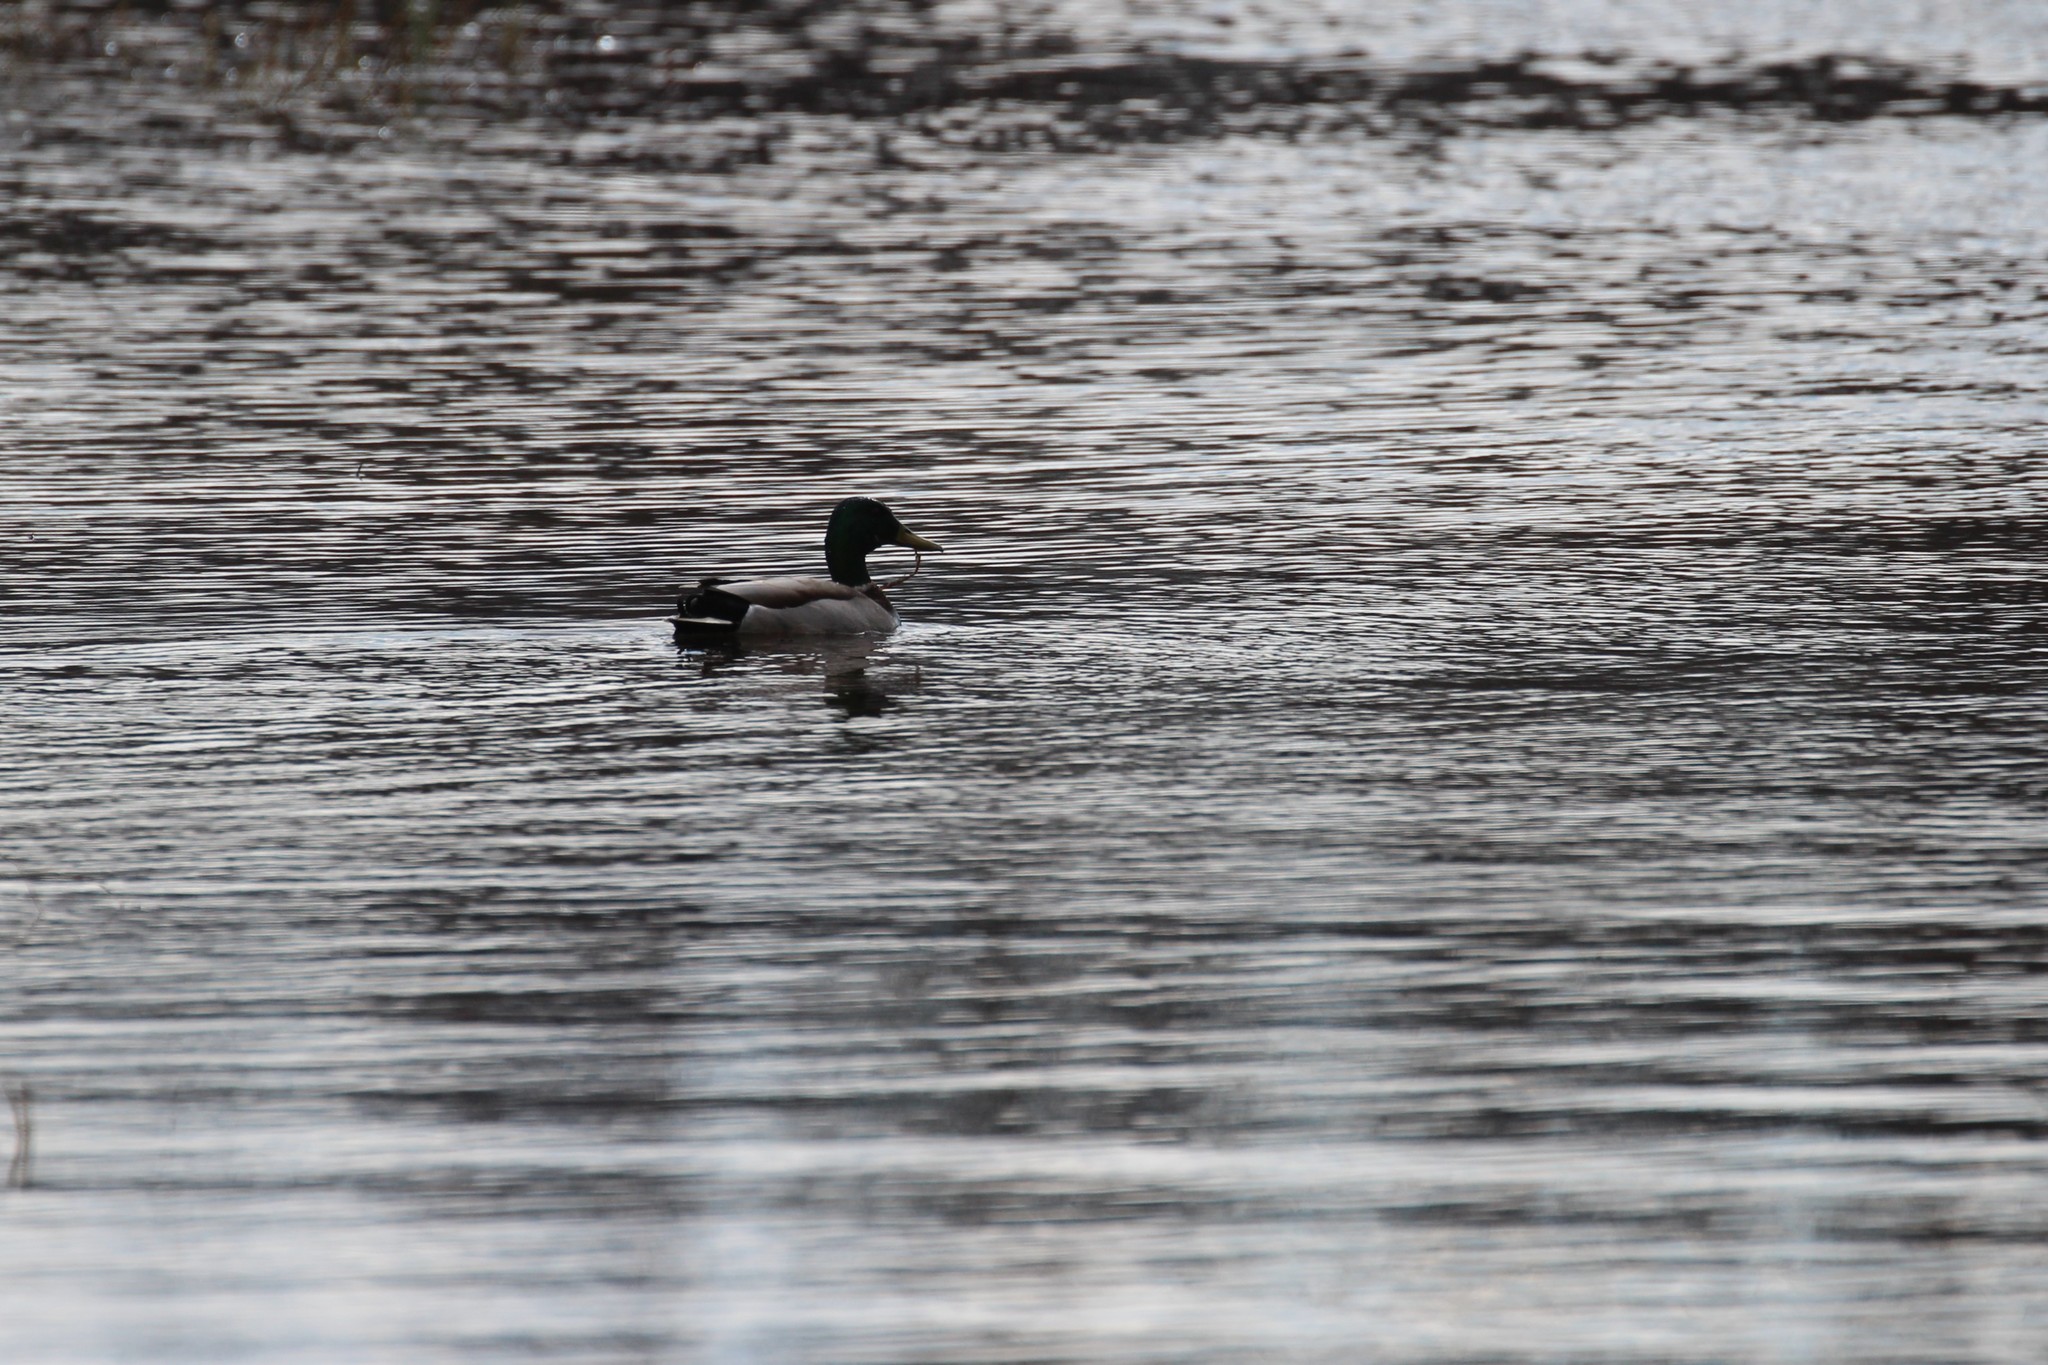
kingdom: Animalia
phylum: Chordata
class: Aves
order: Anseriformes
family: Anatidae
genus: Anas
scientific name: Anas platyrhynchos
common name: Mallard
